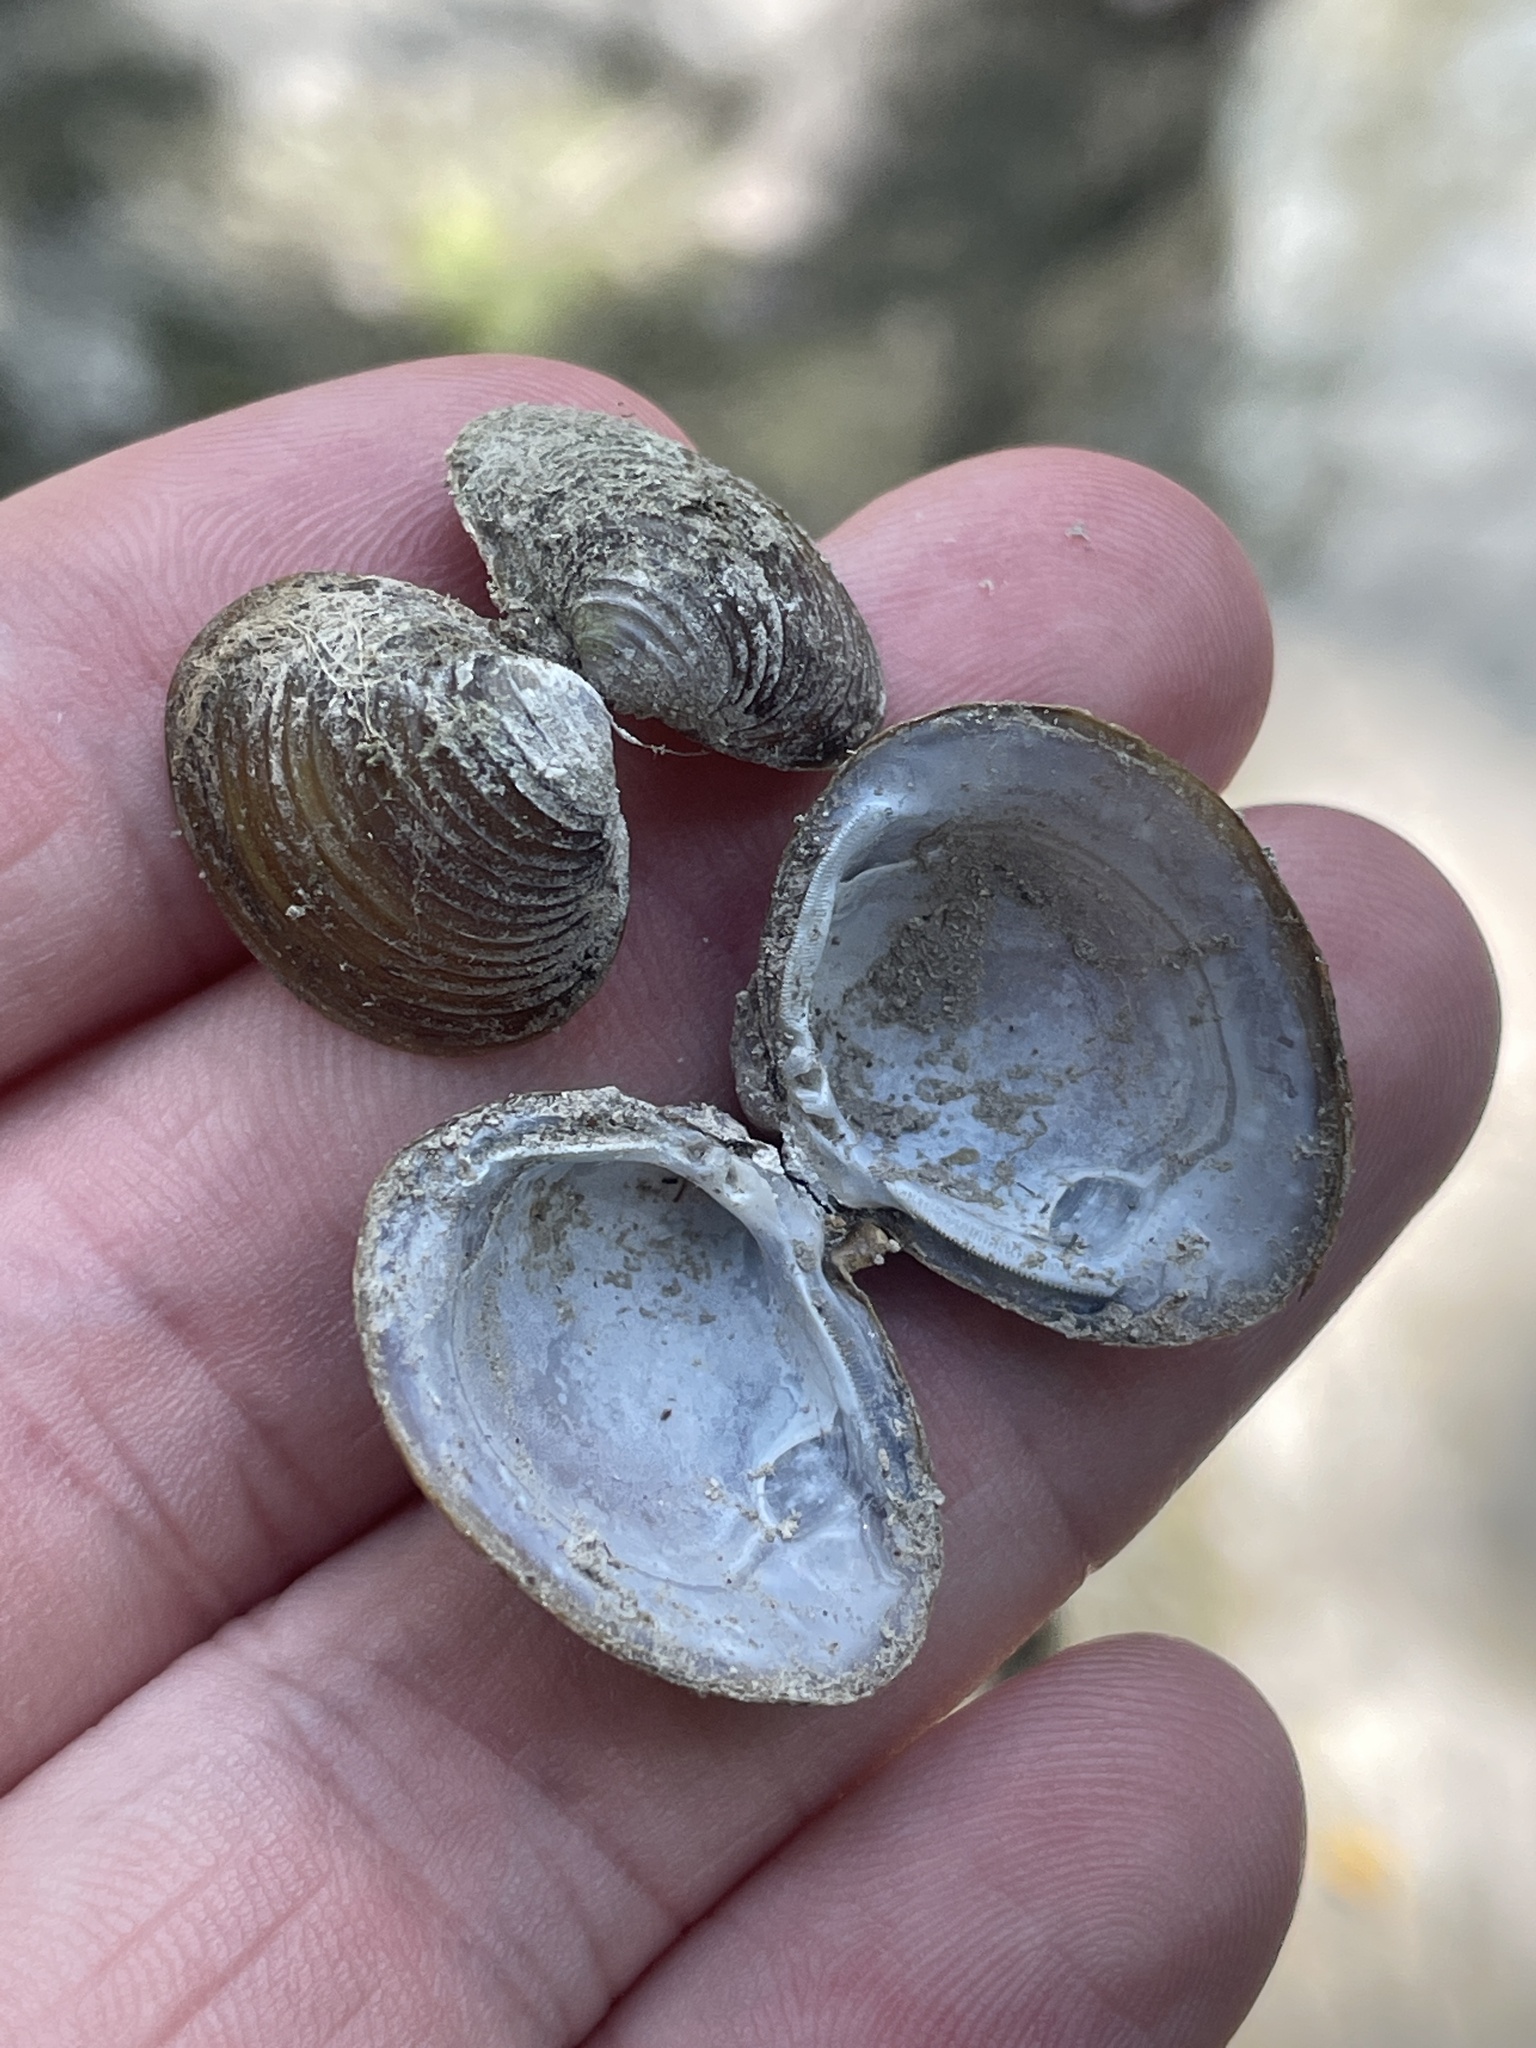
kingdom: Animalia
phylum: Mollusca
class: Bivalvia
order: Venerida
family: Cyrenidae
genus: Corbicula
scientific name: Corbicula fluminea
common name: Asian clam
